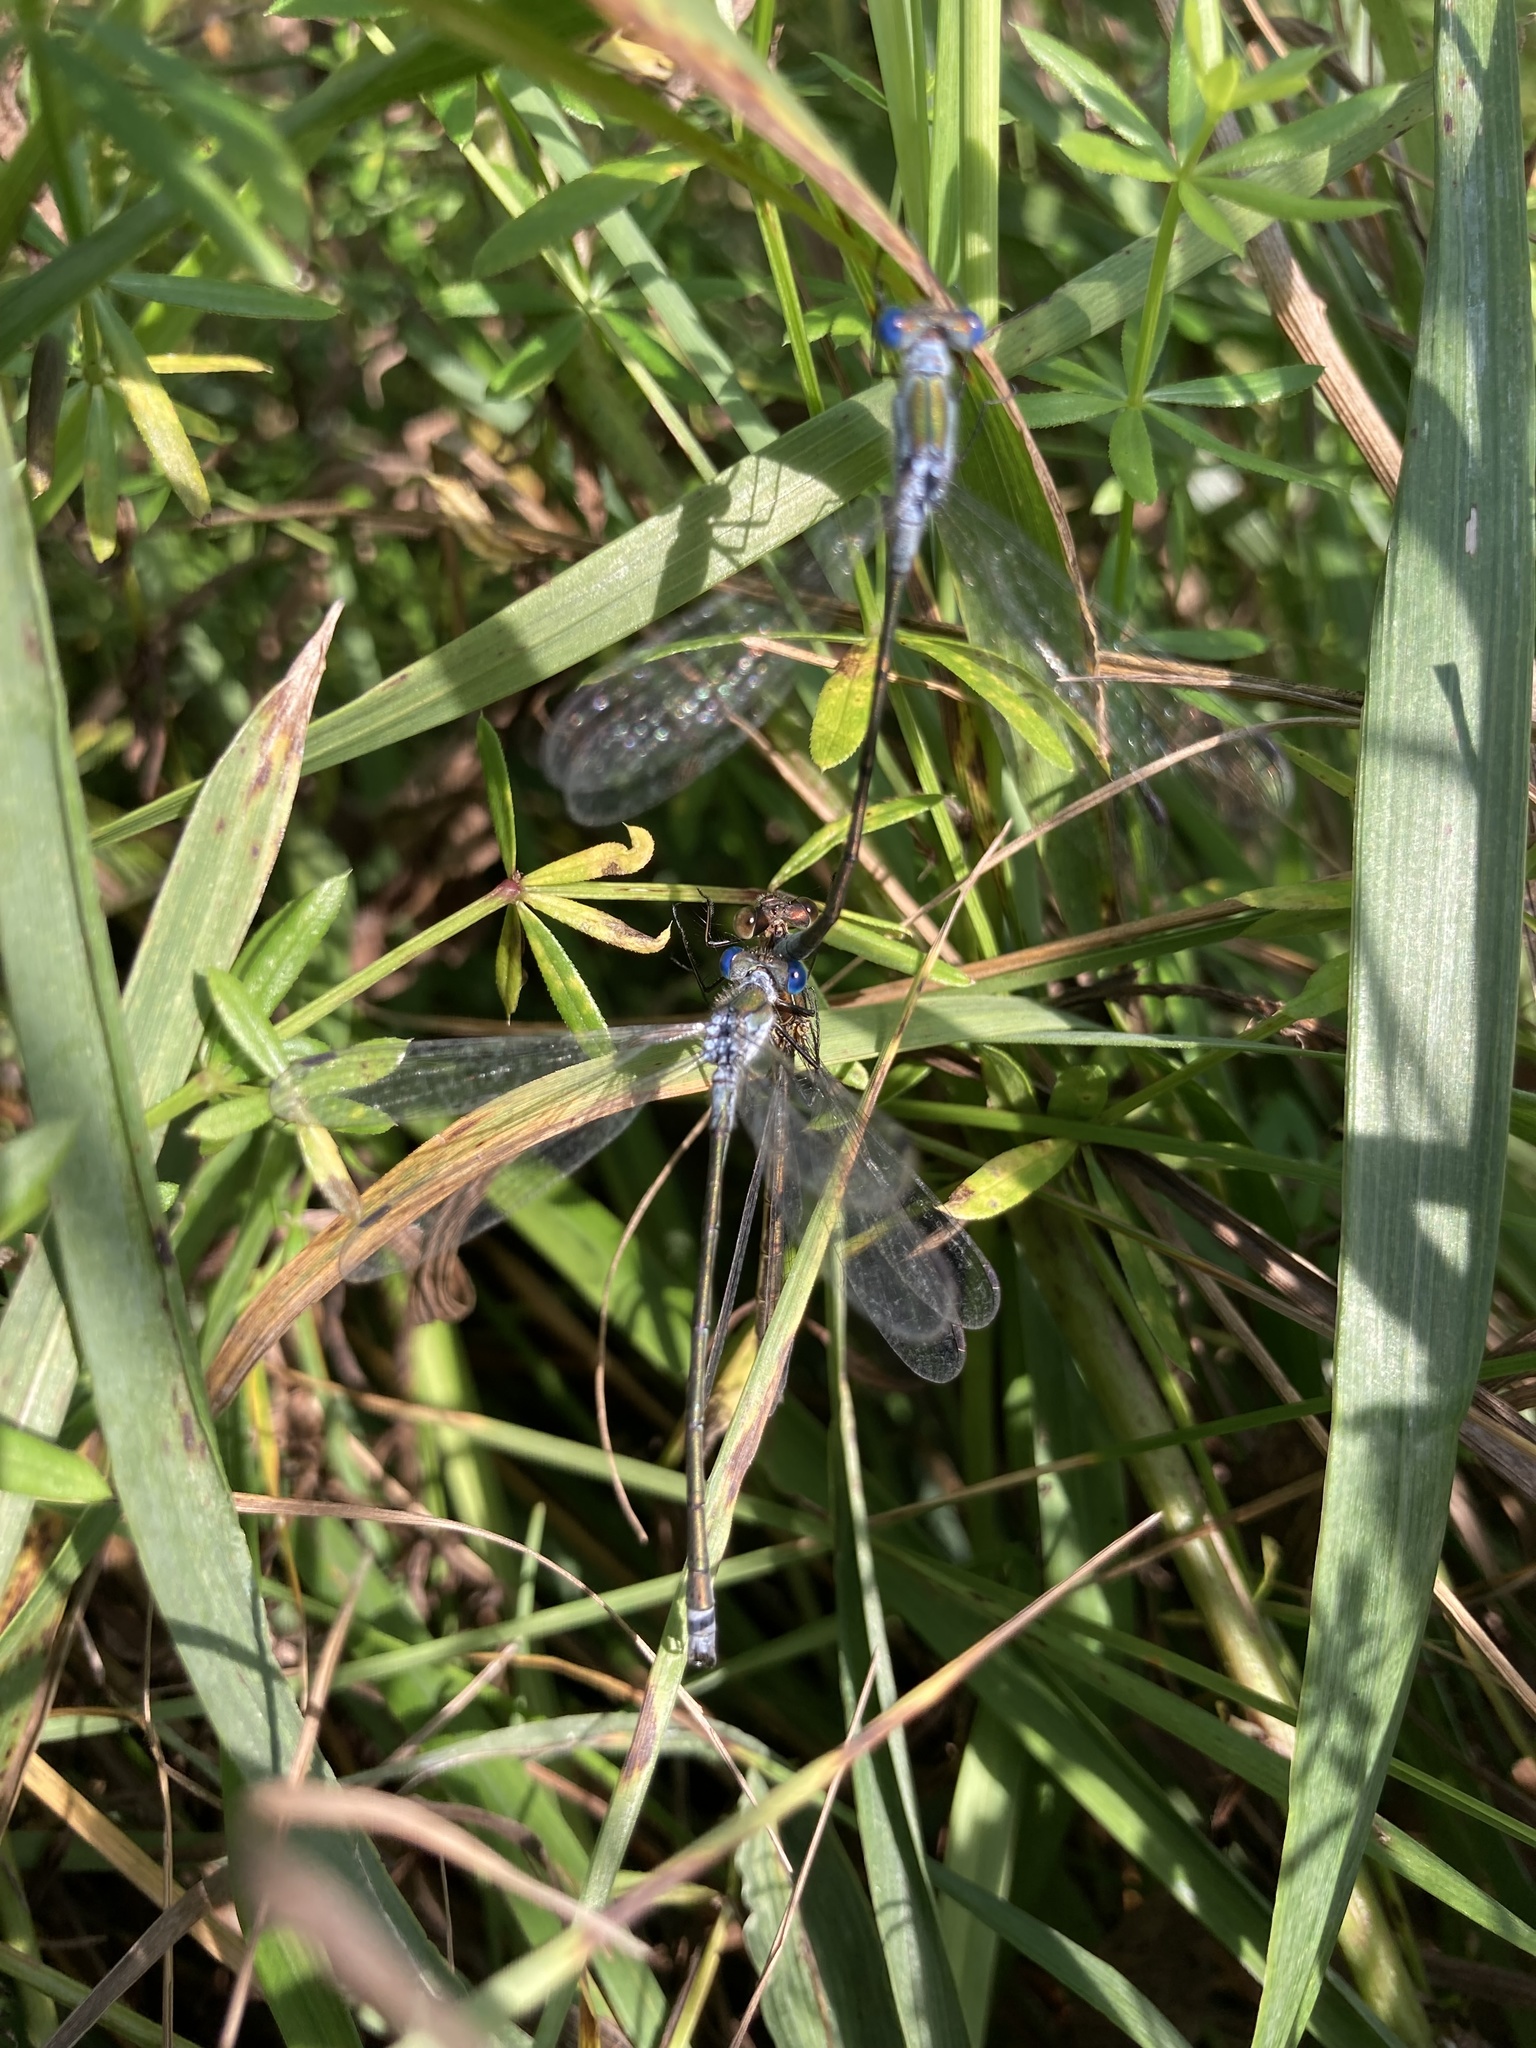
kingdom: Animalia
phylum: Arthropoda
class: Insecta
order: Odonata
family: Lestidae
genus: Lestes
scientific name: Lestes sponsa
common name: Common spreadwing
